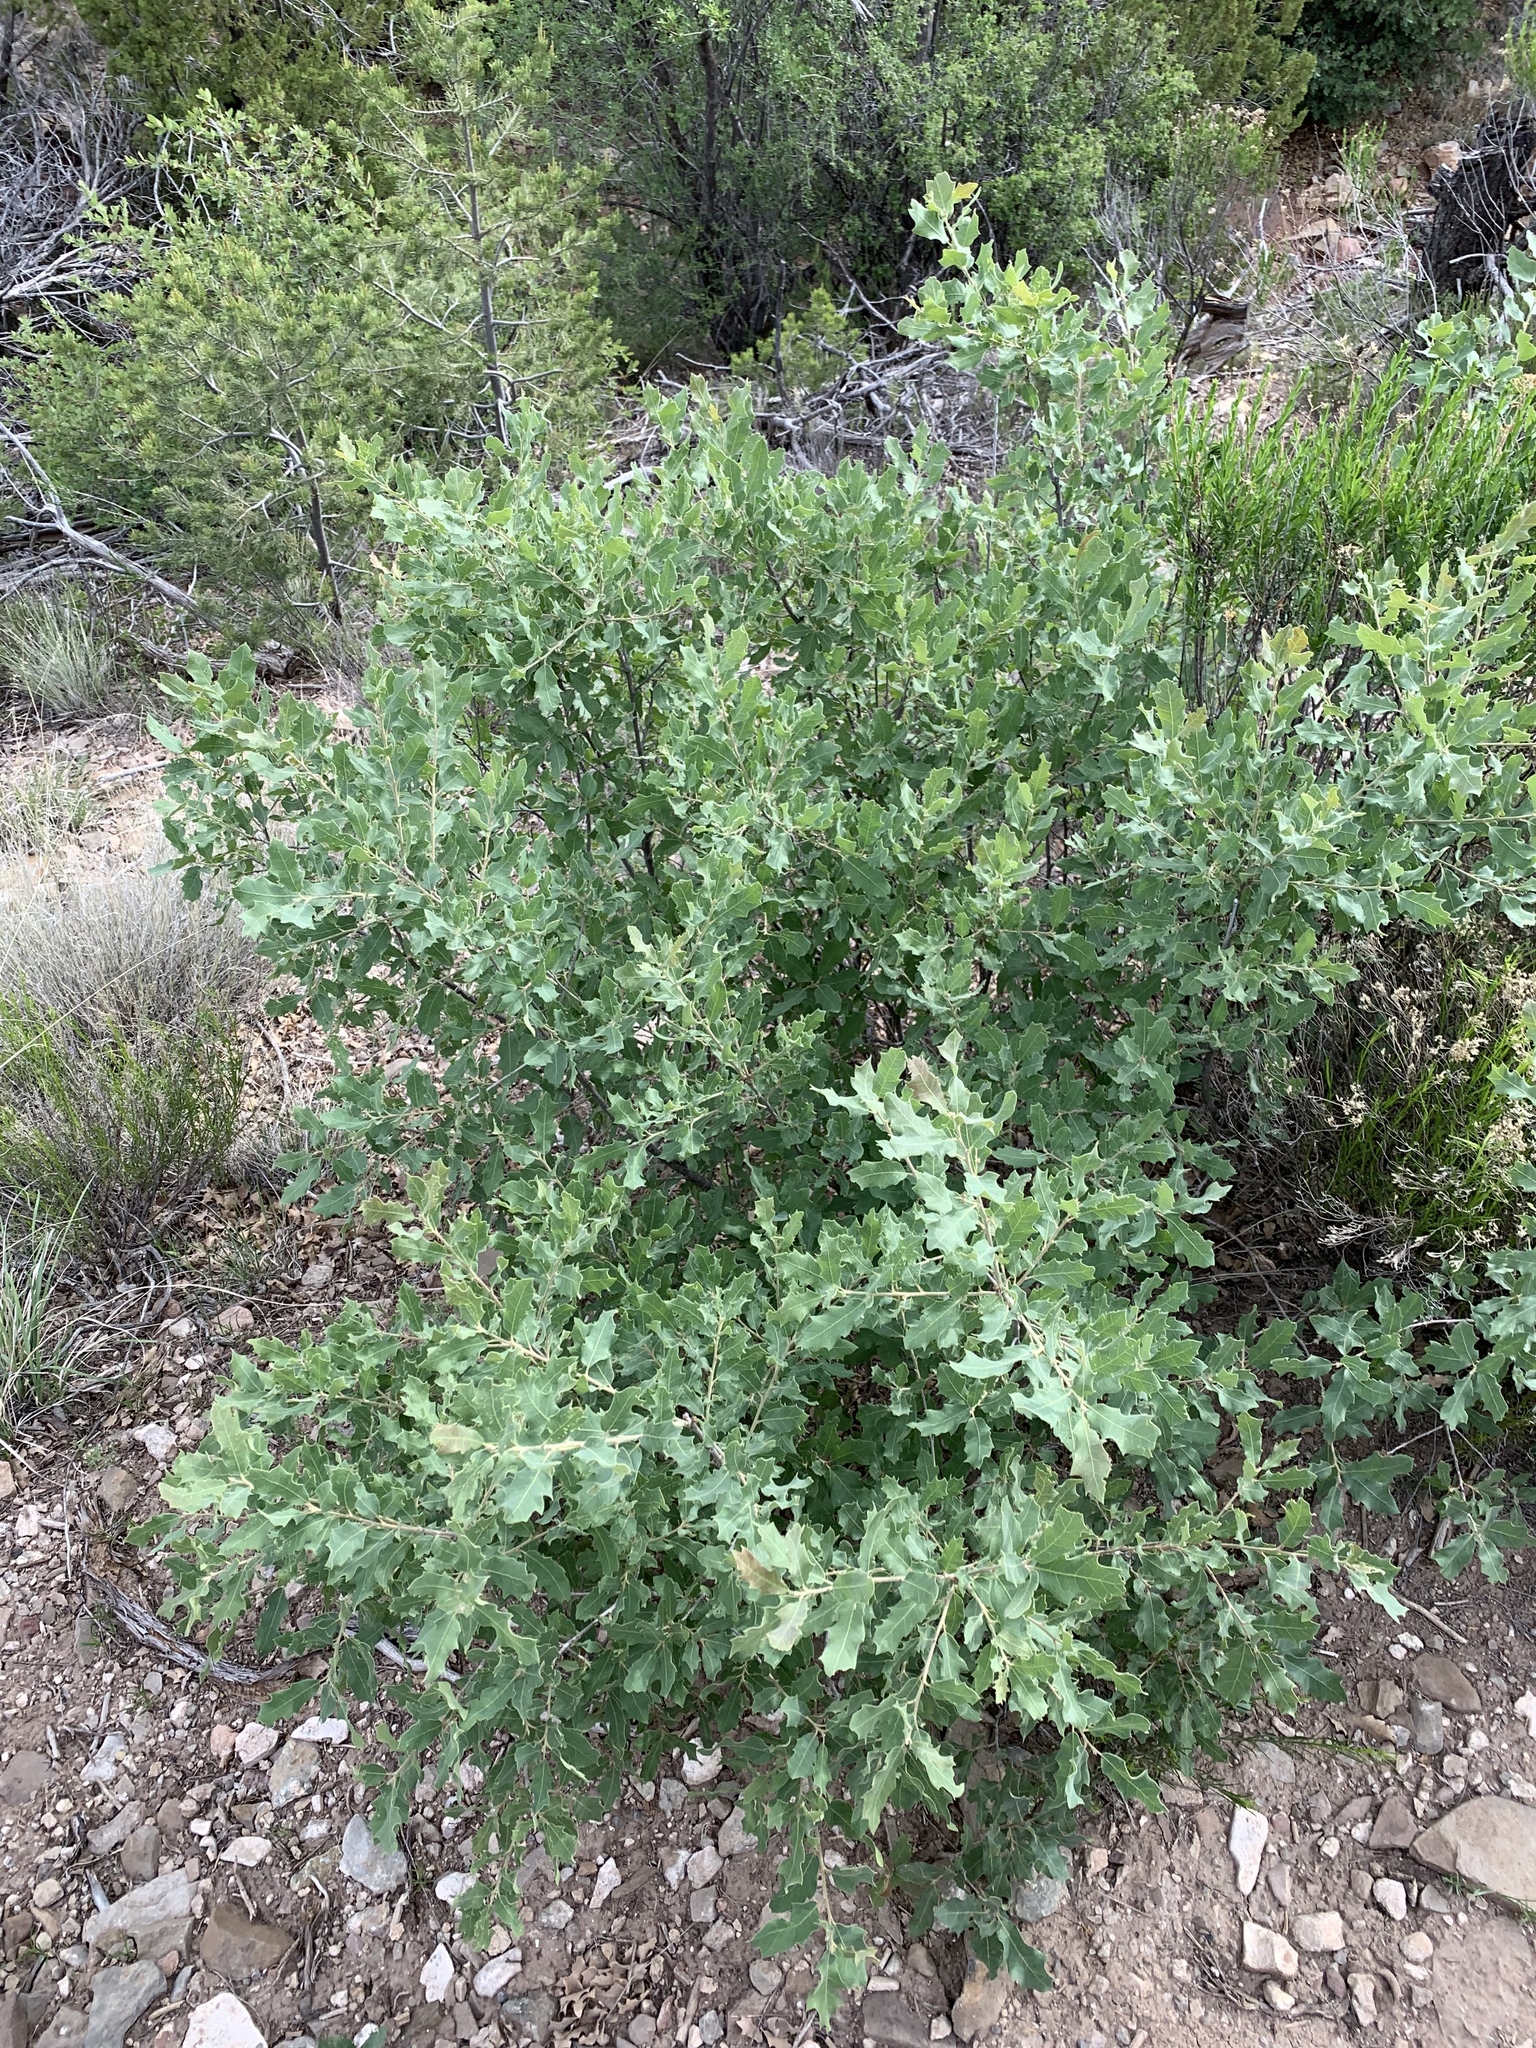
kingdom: Plantae
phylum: Tracheophyta
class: Magnoliopsida
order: Fagales
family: Fagaceae
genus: Quercus
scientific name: Quercus undulata
